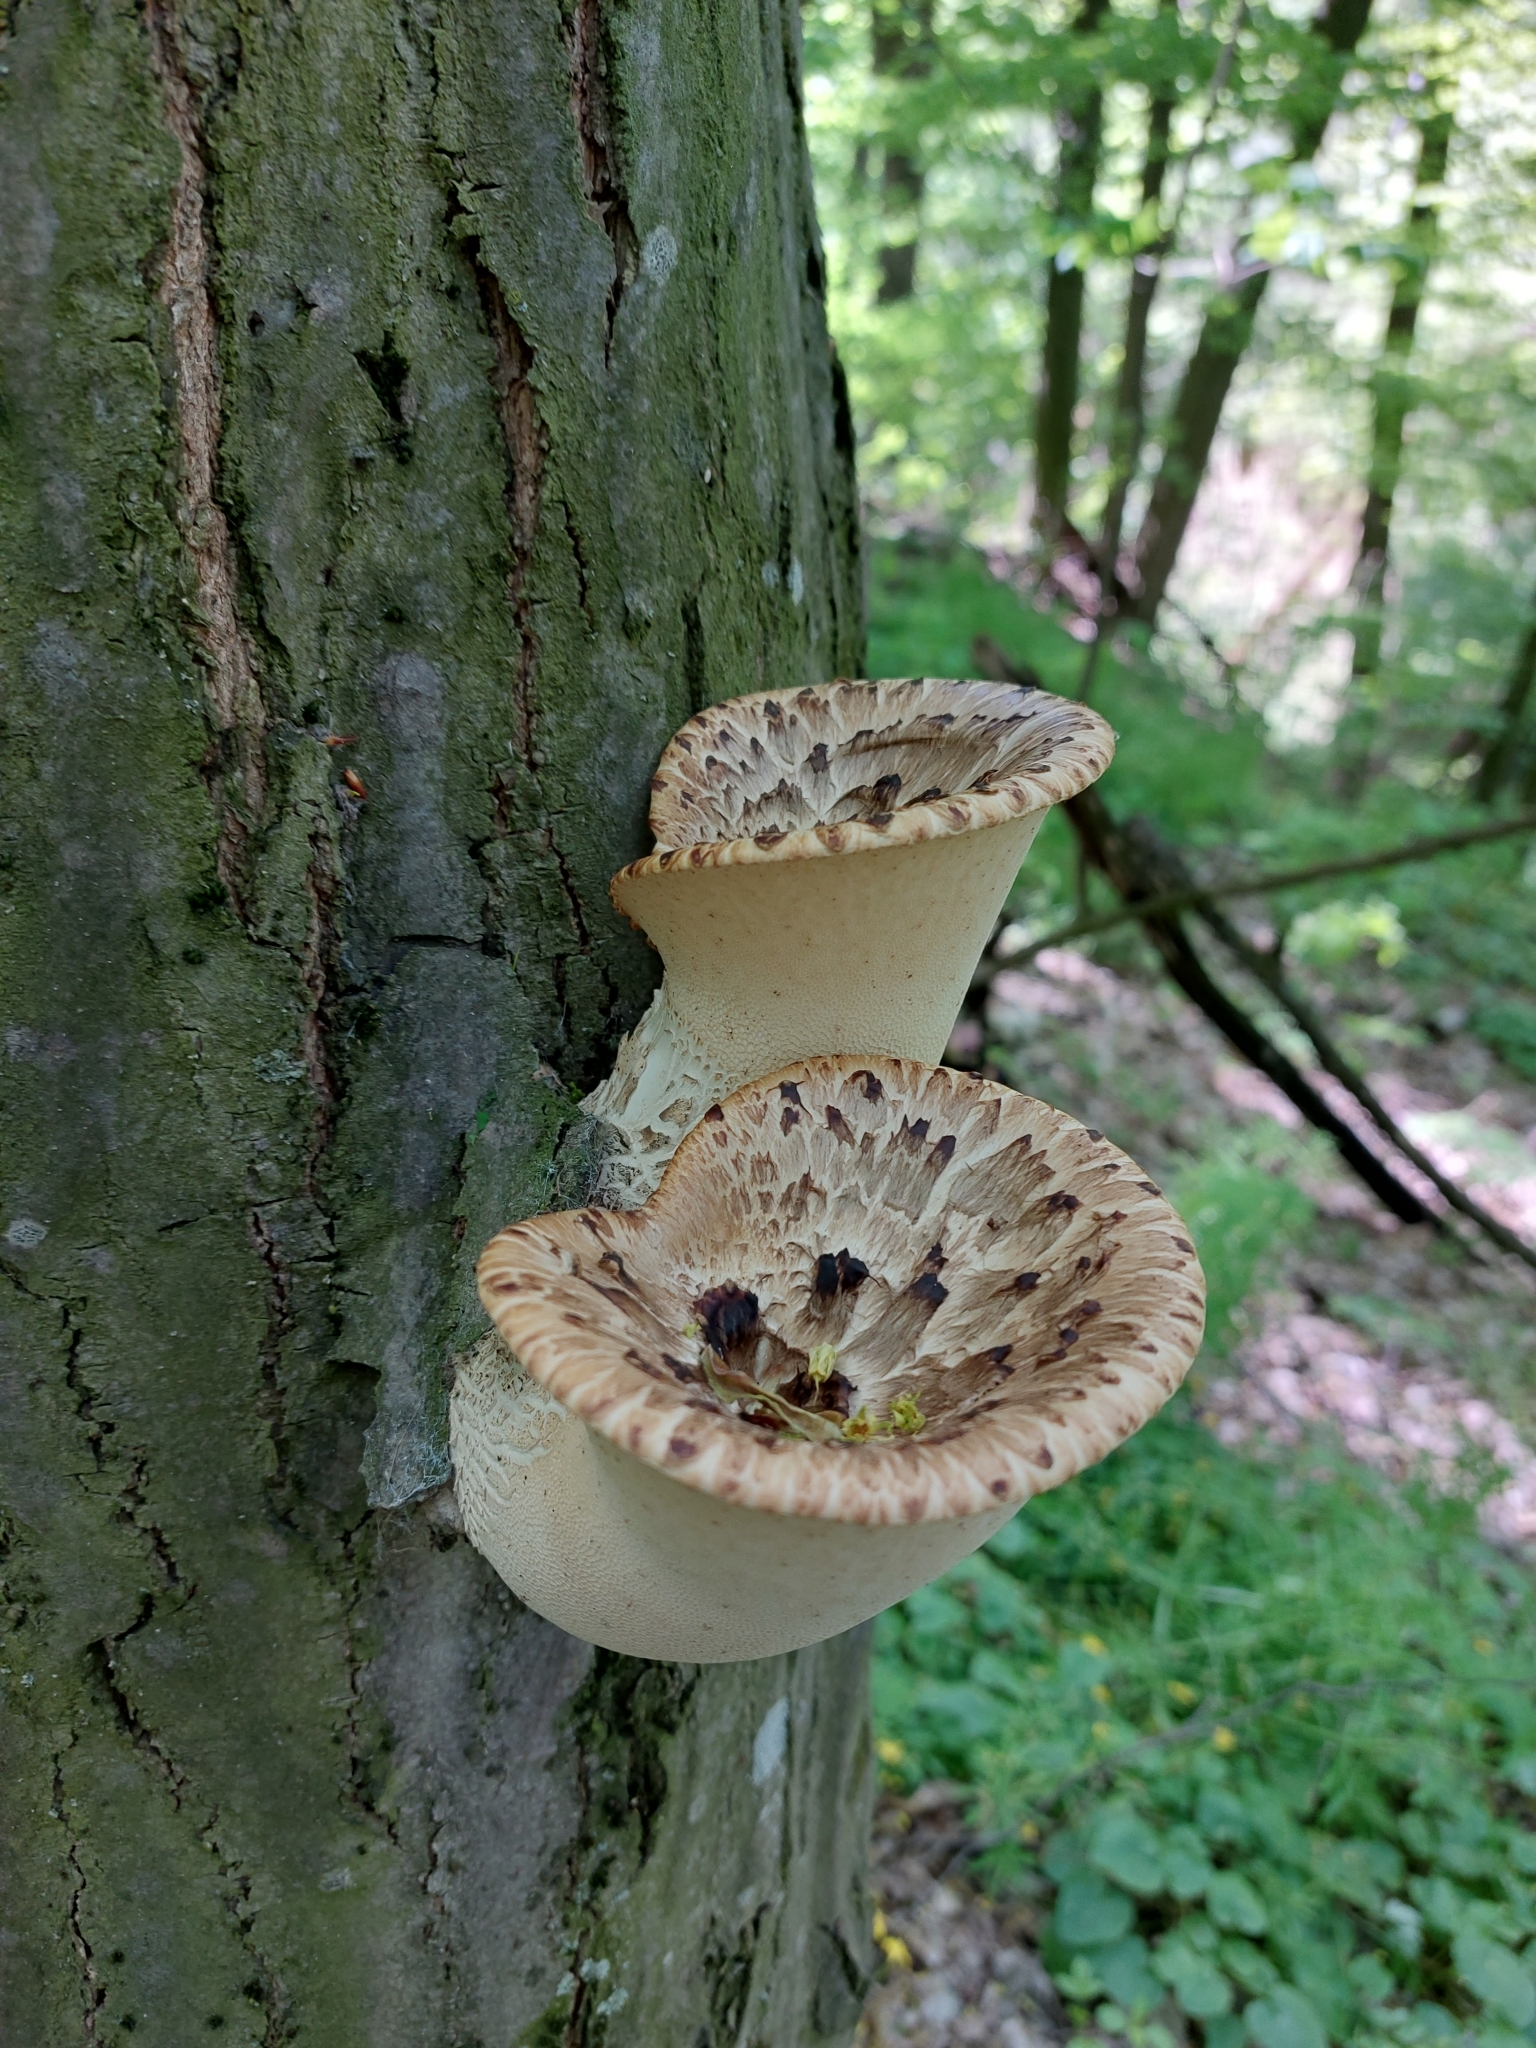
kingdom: Fungi
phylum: Basidiomycota
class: Agaricomycetes
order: Polyporales
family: Polyporaceae
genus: Cerioporus
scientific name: Cerioporus squamosus
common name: Dryad's saddle
